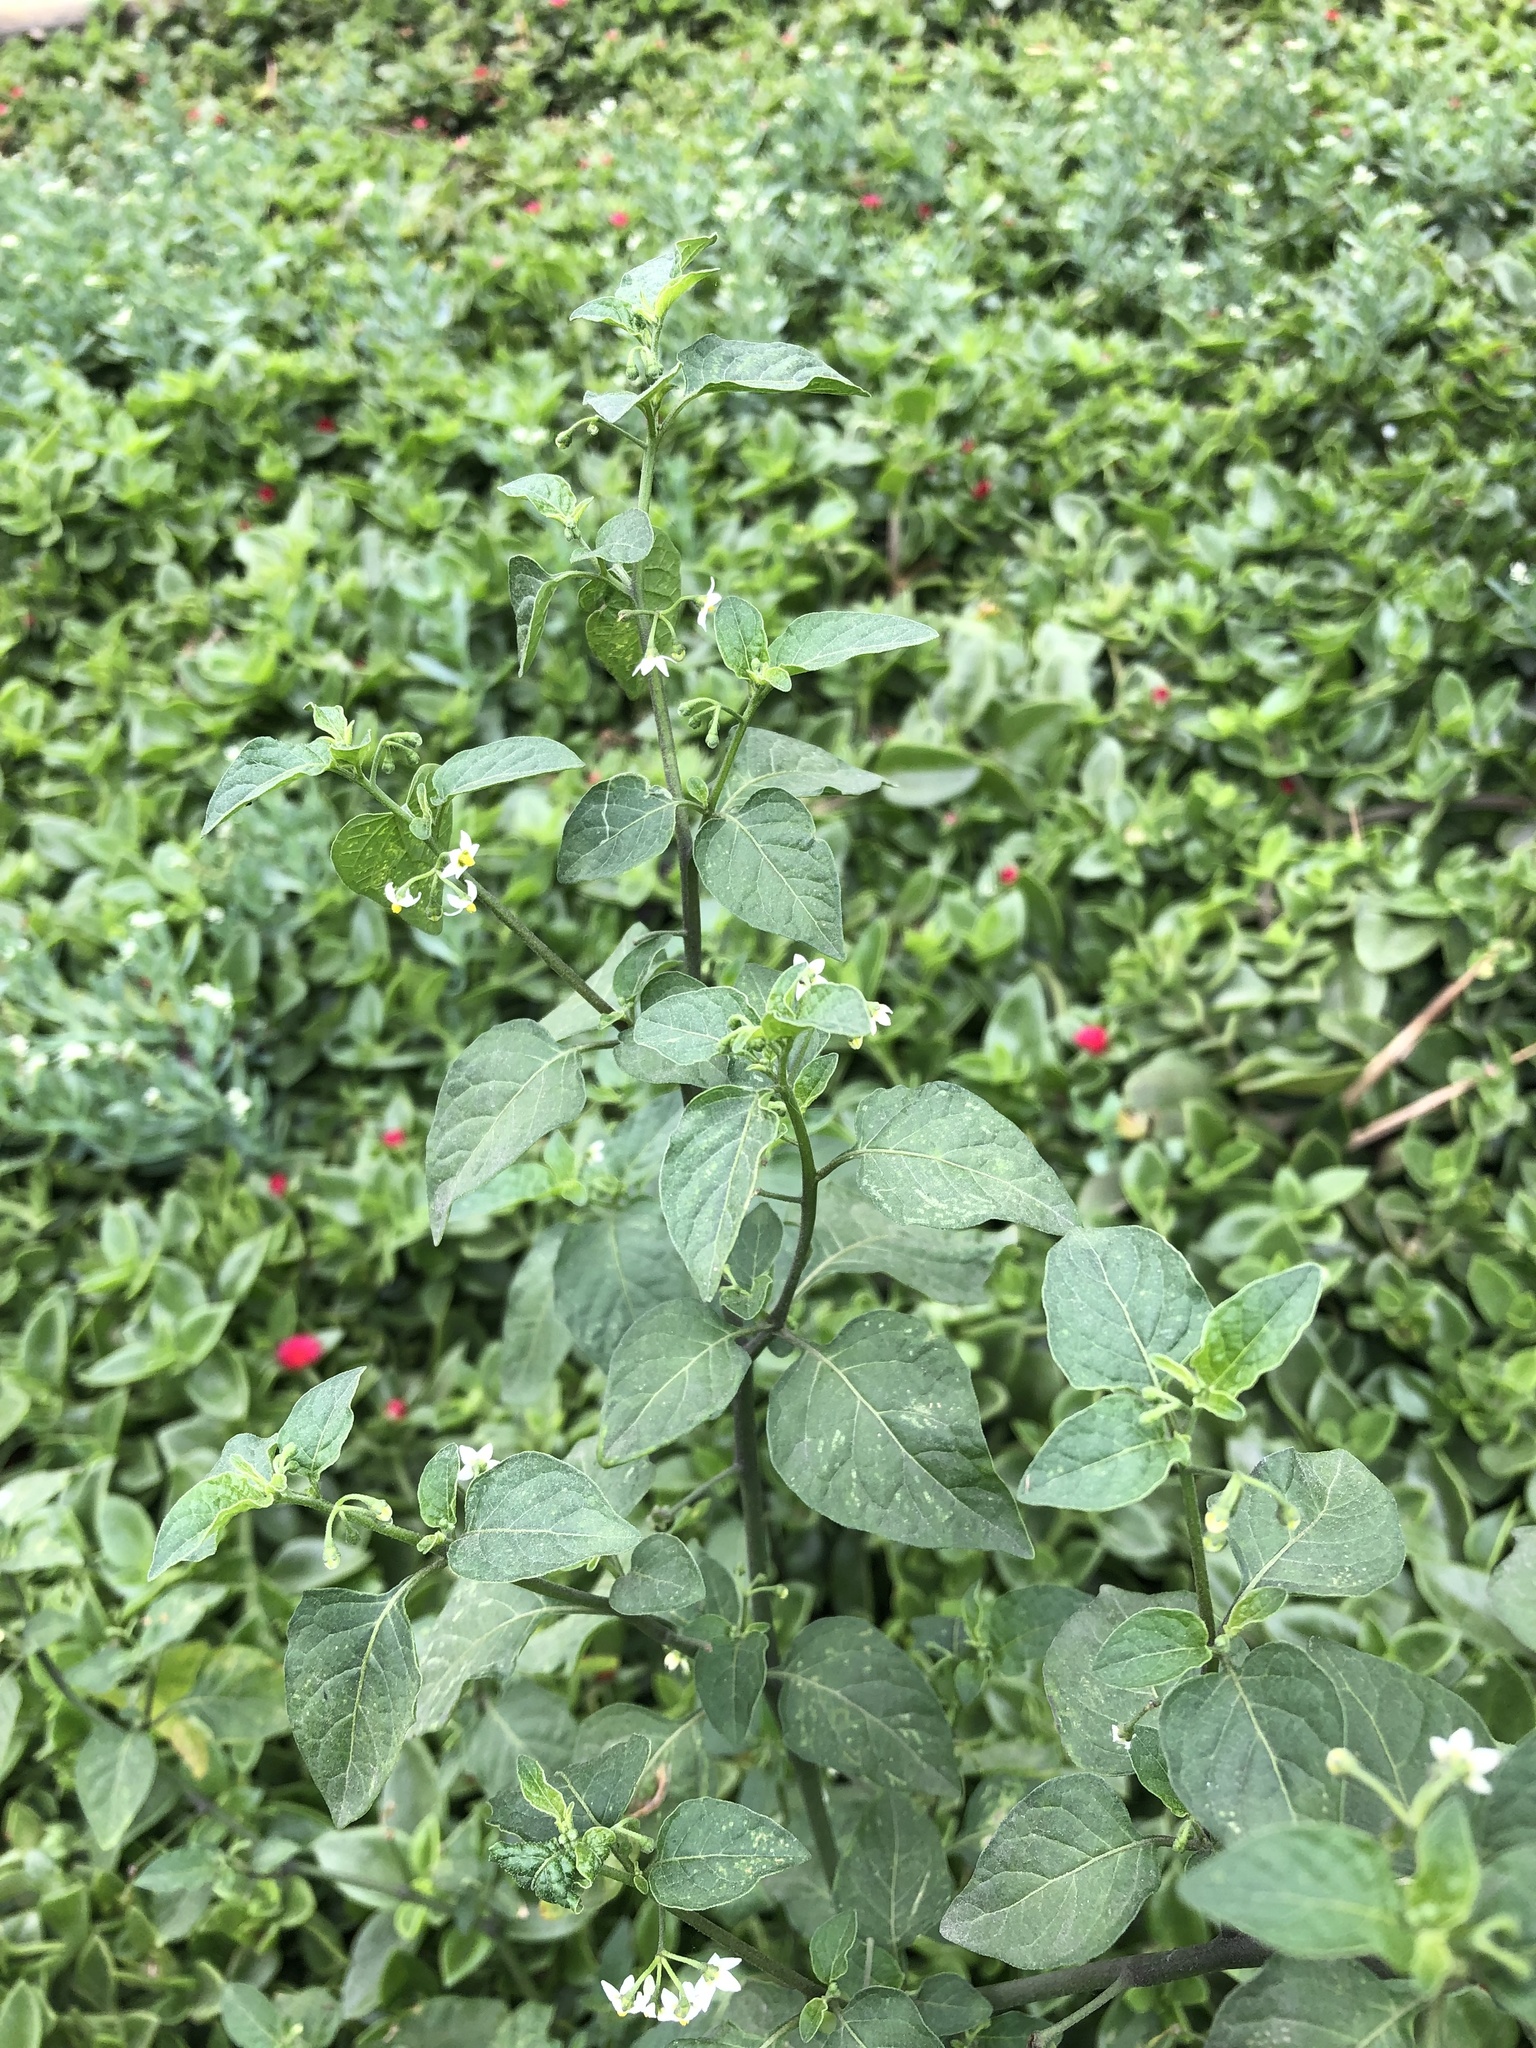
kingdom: Plantae
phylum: Tracheophyta
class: Magnoliopsida
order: Solanales
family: Solanaceae
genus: Solanum
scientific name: Solanum americanum
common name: American black nightshade
